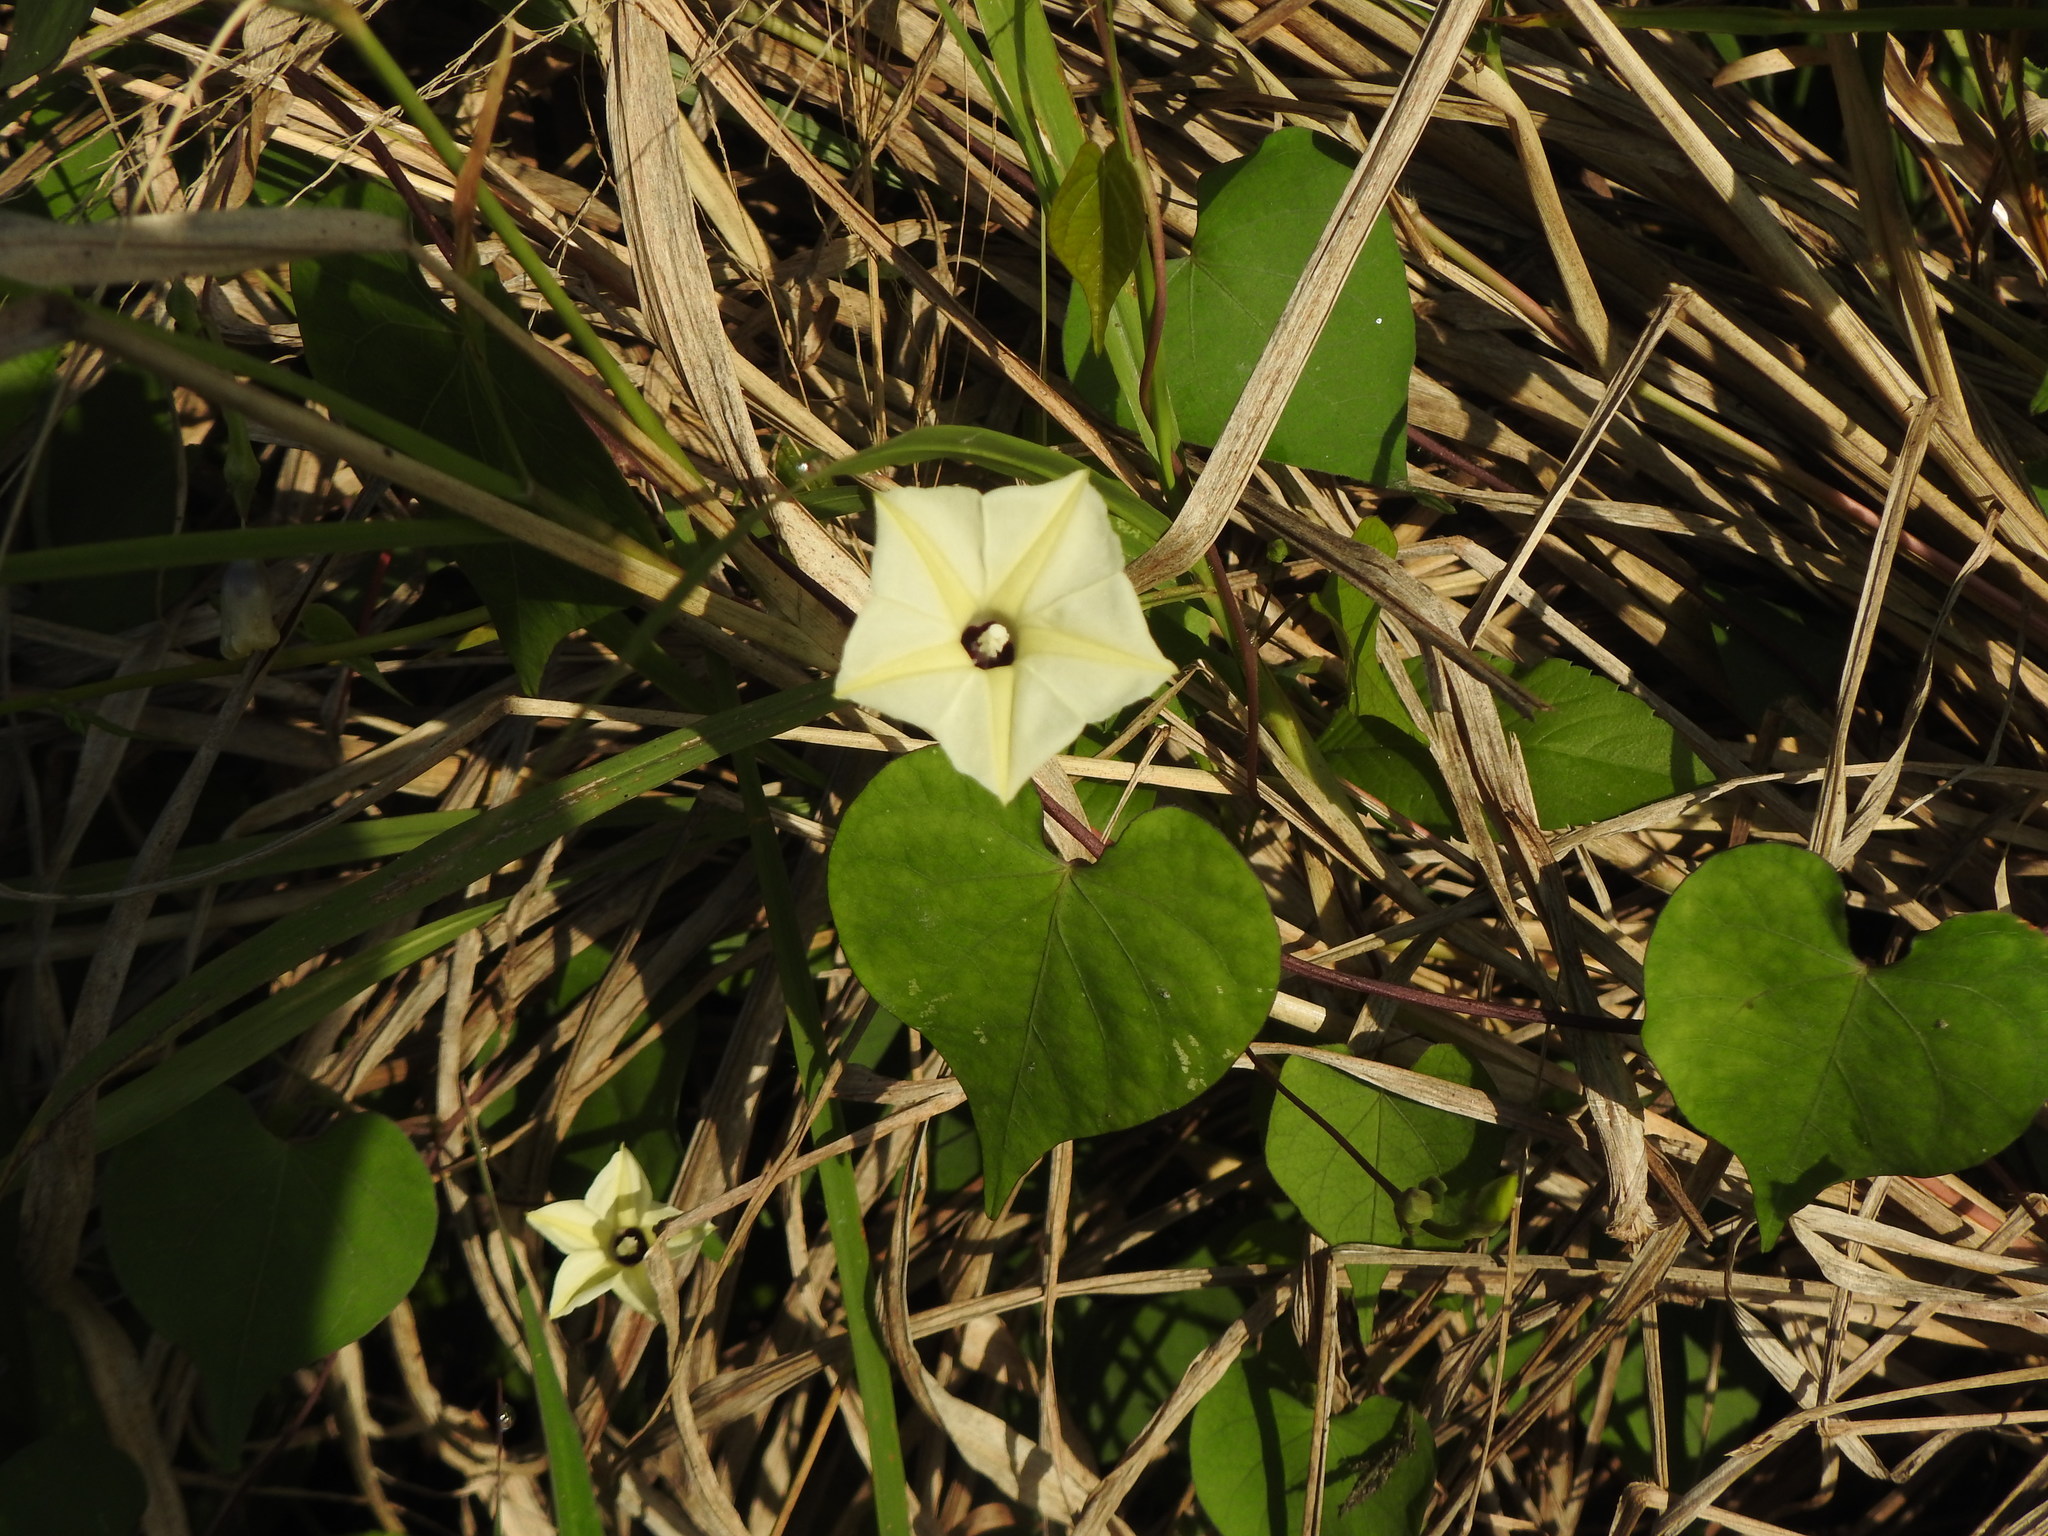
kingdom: Plantae
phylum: Tracheophyta
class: Magnoliopsida
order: Solanales
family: Convolvulaceae
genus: Ipomoea
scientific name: Ipomoea obscura
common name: Obscure morning-glory
